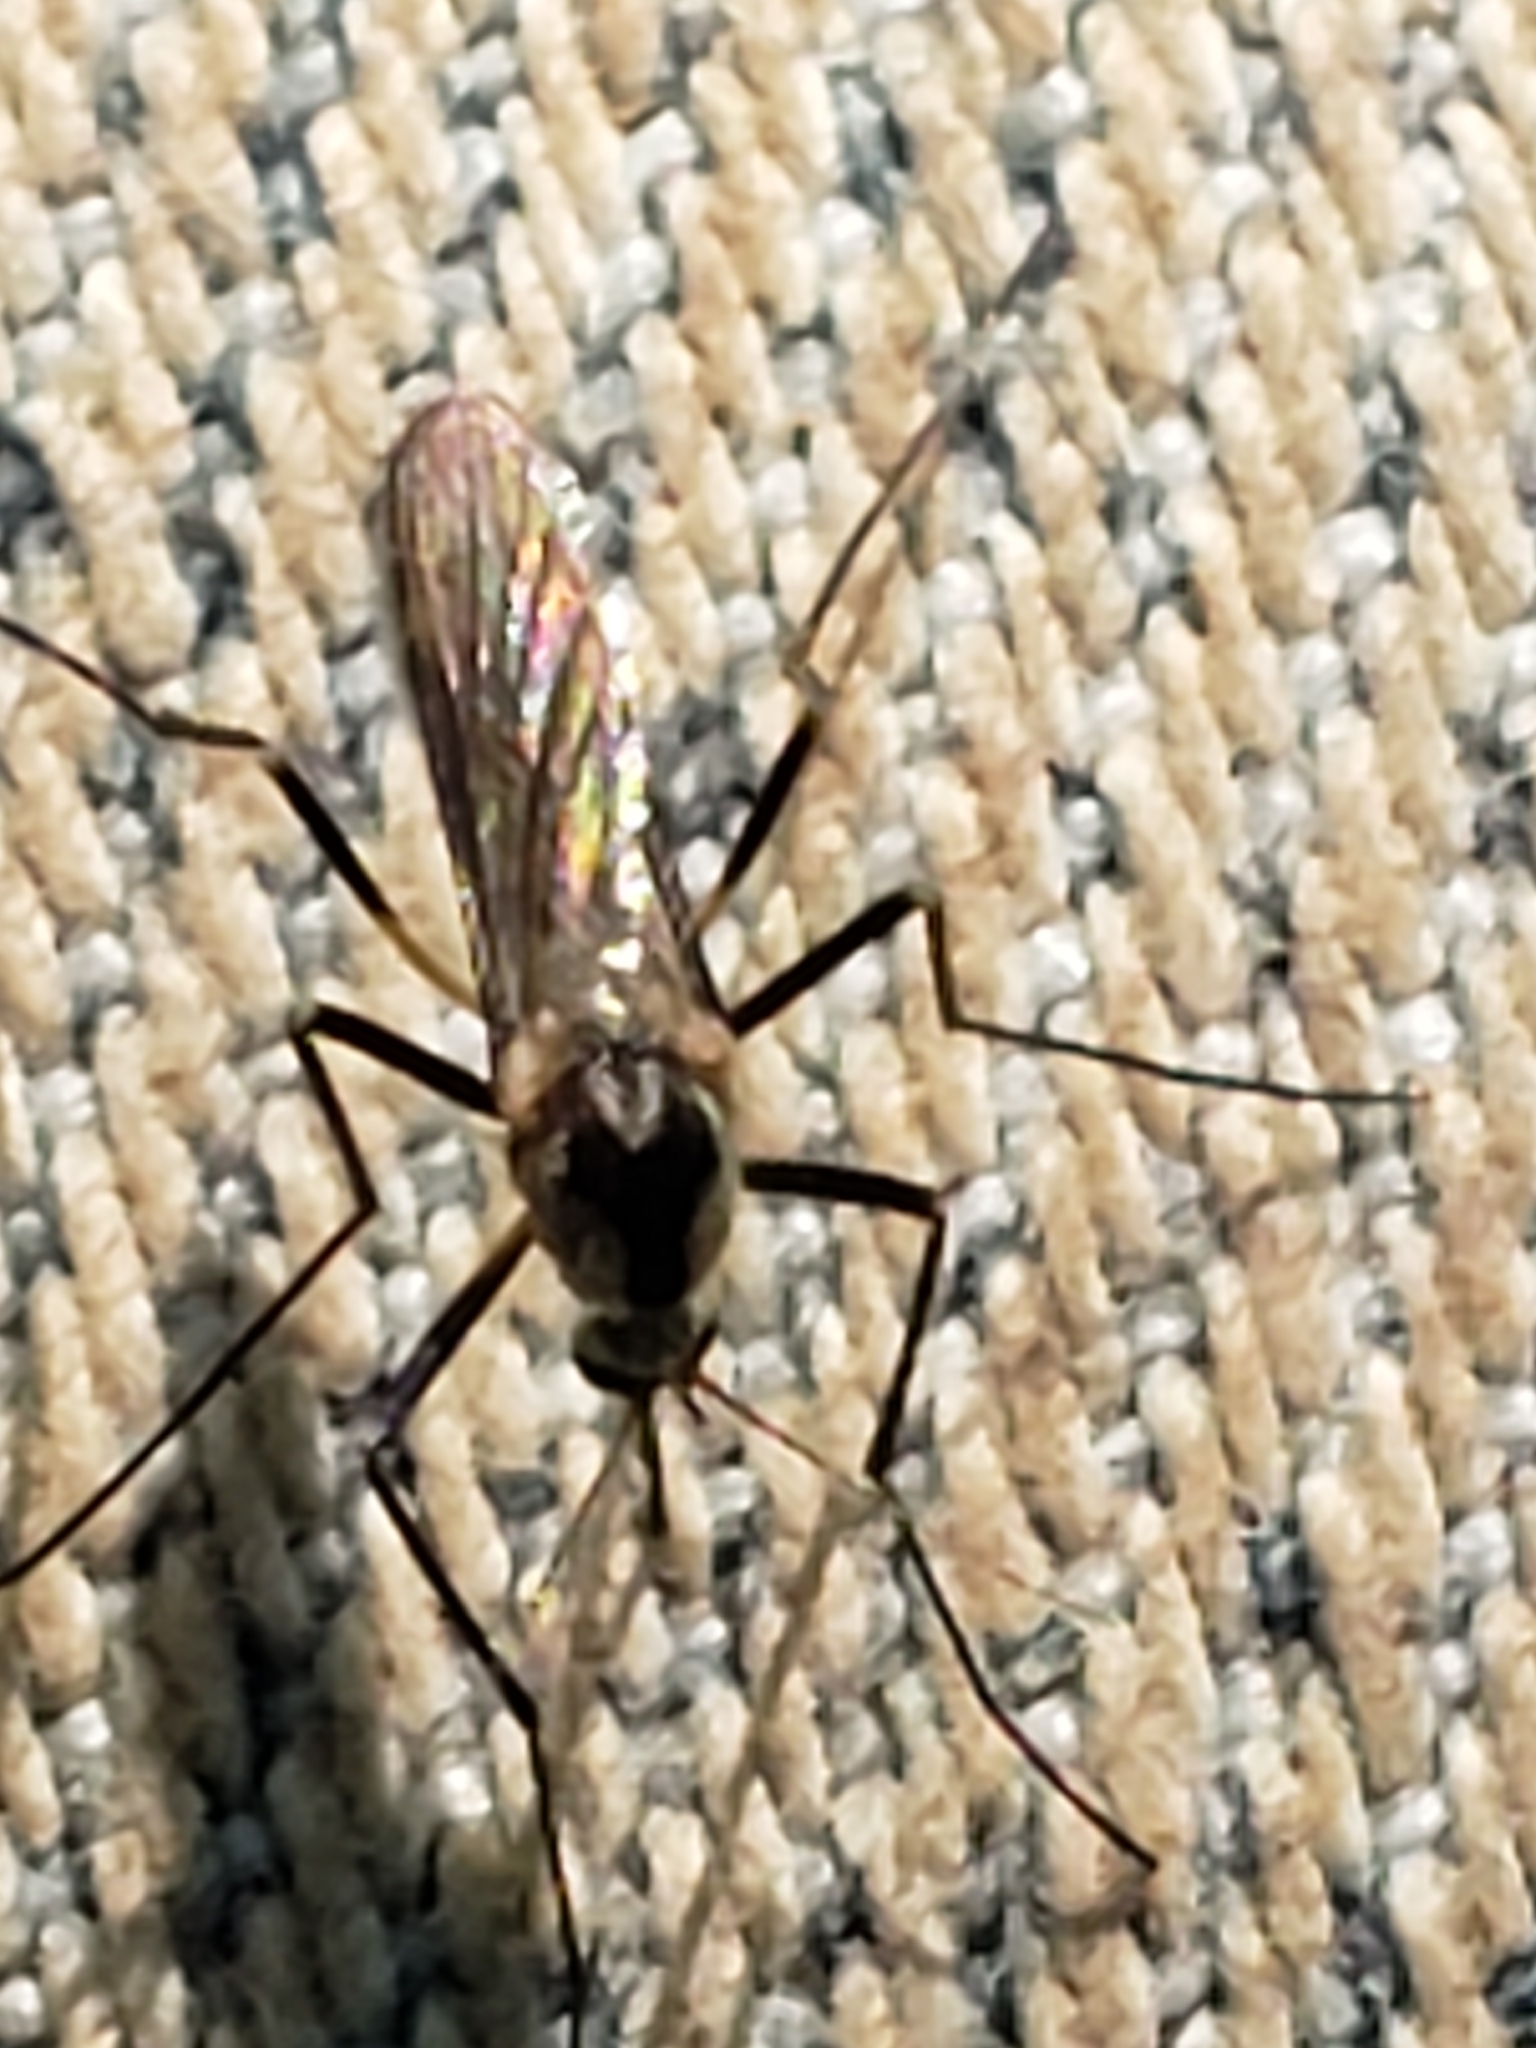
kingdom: Animalia
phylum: Arthropoda
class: Insecta
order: Diptera
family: Culicidae
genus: Aedes
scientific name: Aedes triseriatus
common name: Eastern treehole mosquito
